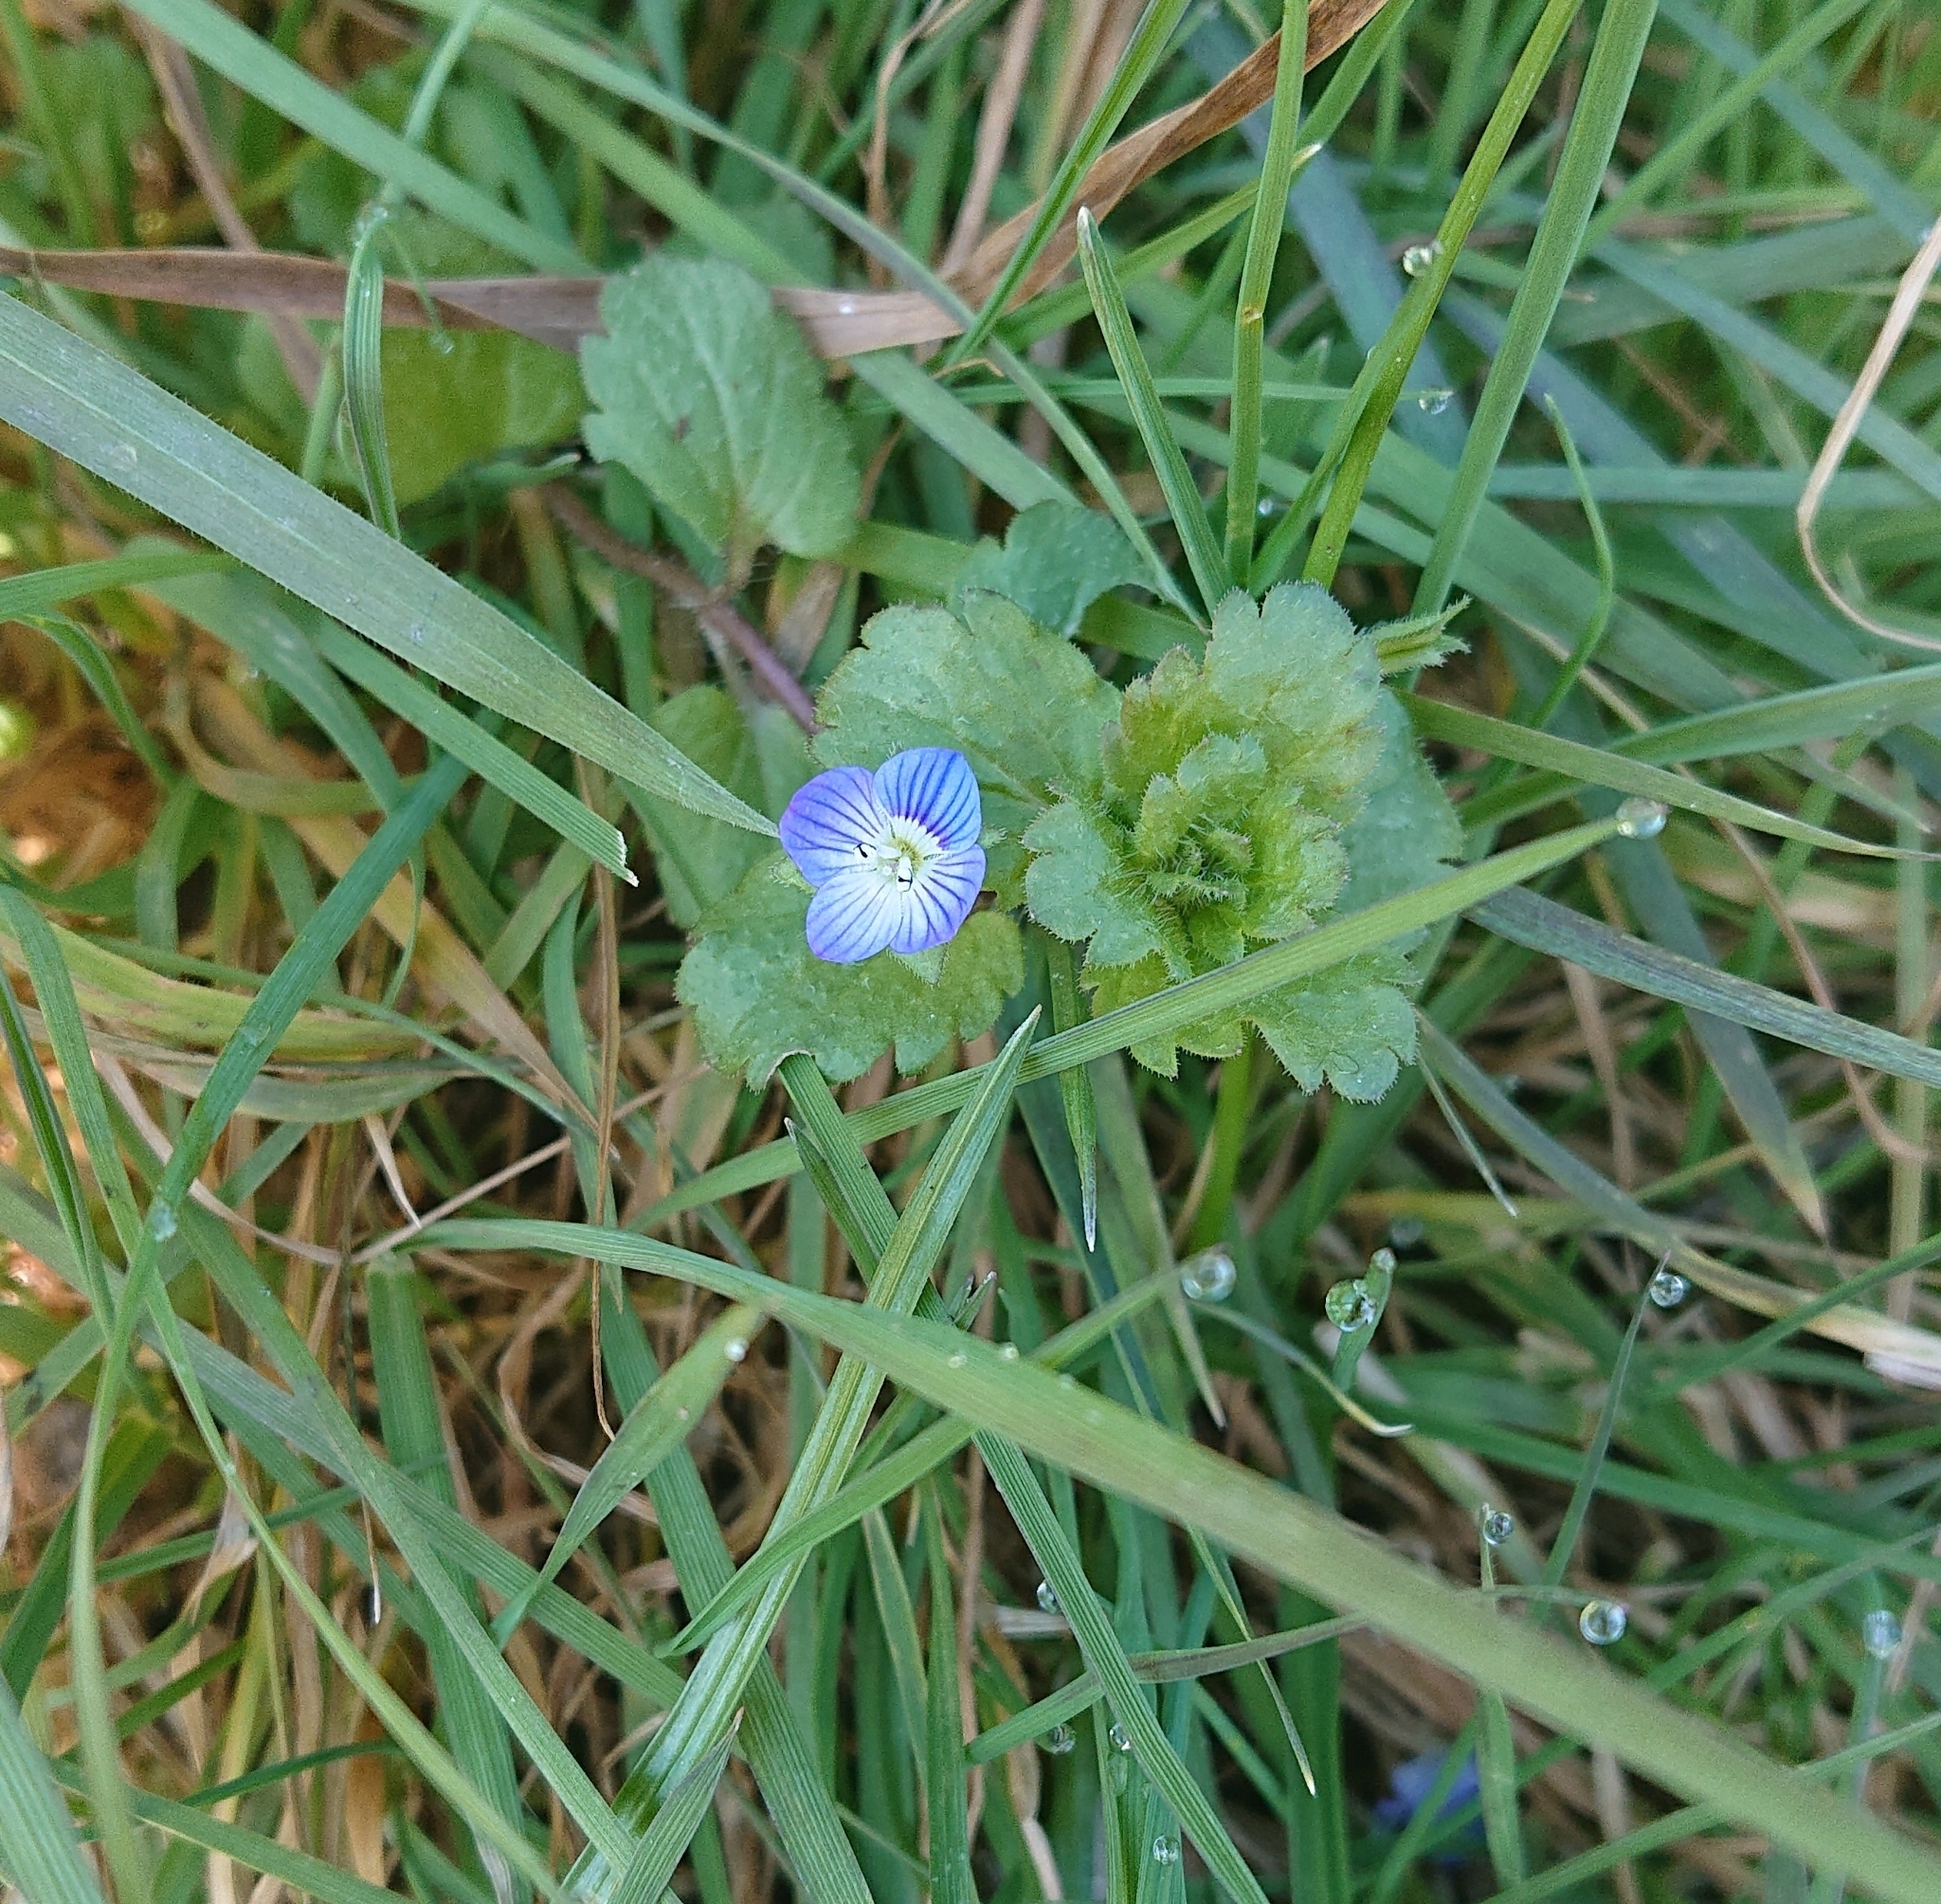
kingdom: Plantae
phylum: Tracheophyta
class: Magnoliopsida
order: Lamiales
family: Plantaginaceae
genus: Veronica
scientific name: Veronica persica
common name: Common field-speedwell
